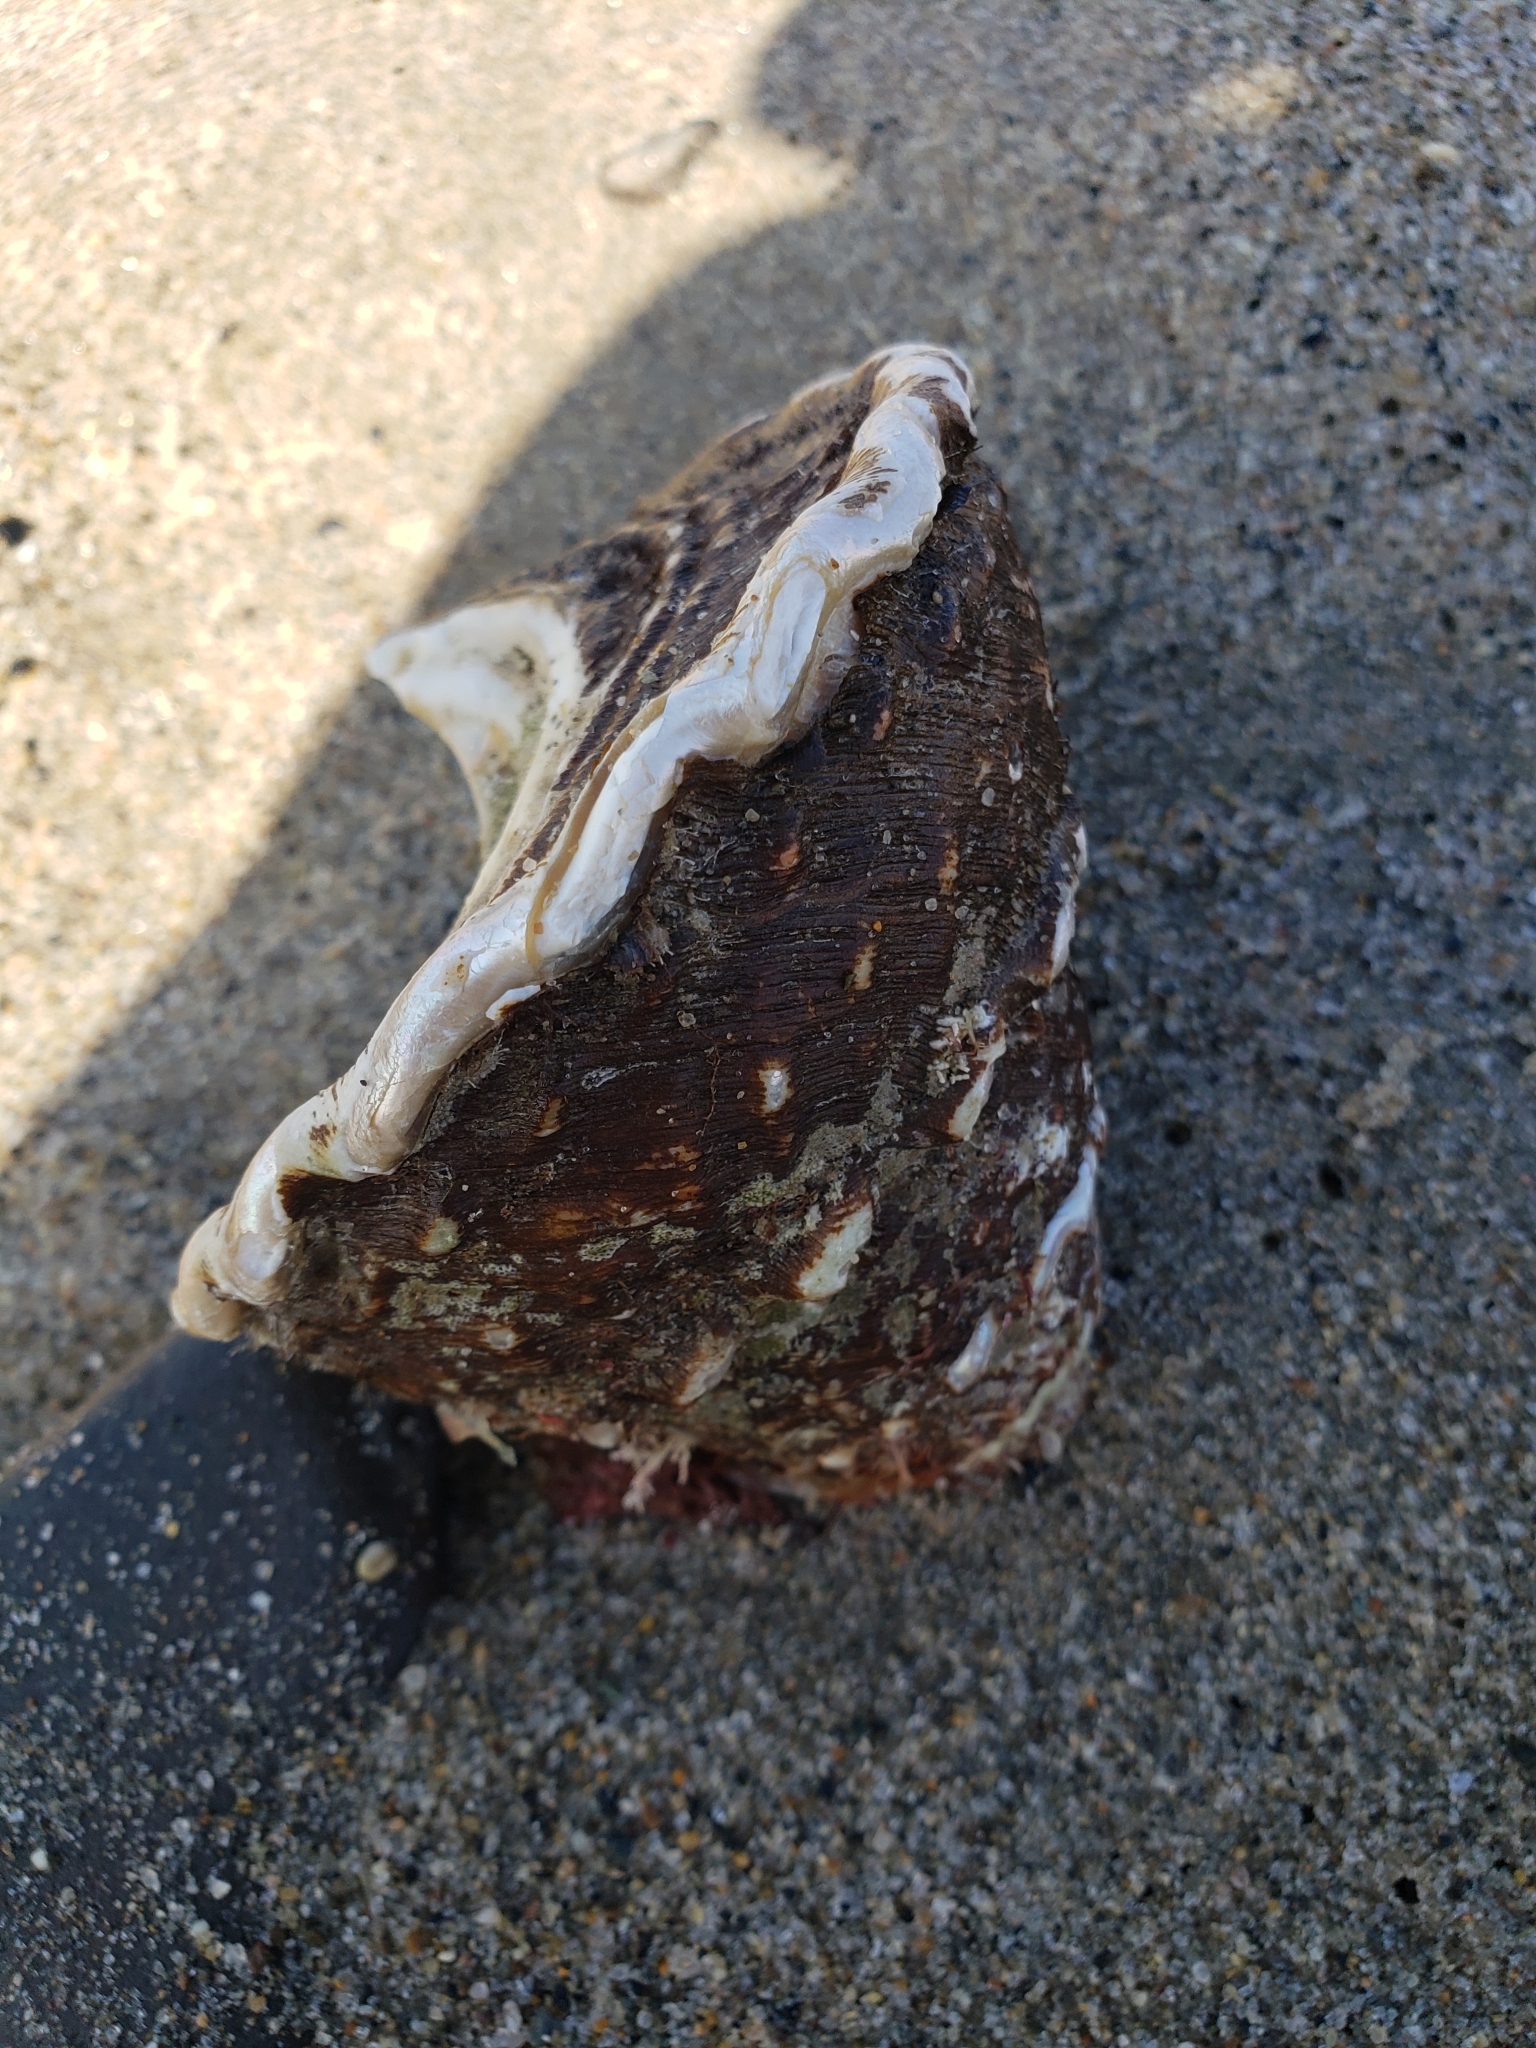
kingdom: Animalia
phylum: Mollusca
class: Gastropoda
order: Trochida
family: Turbinidae
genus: Megastraea
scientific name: Megastraea undosa
